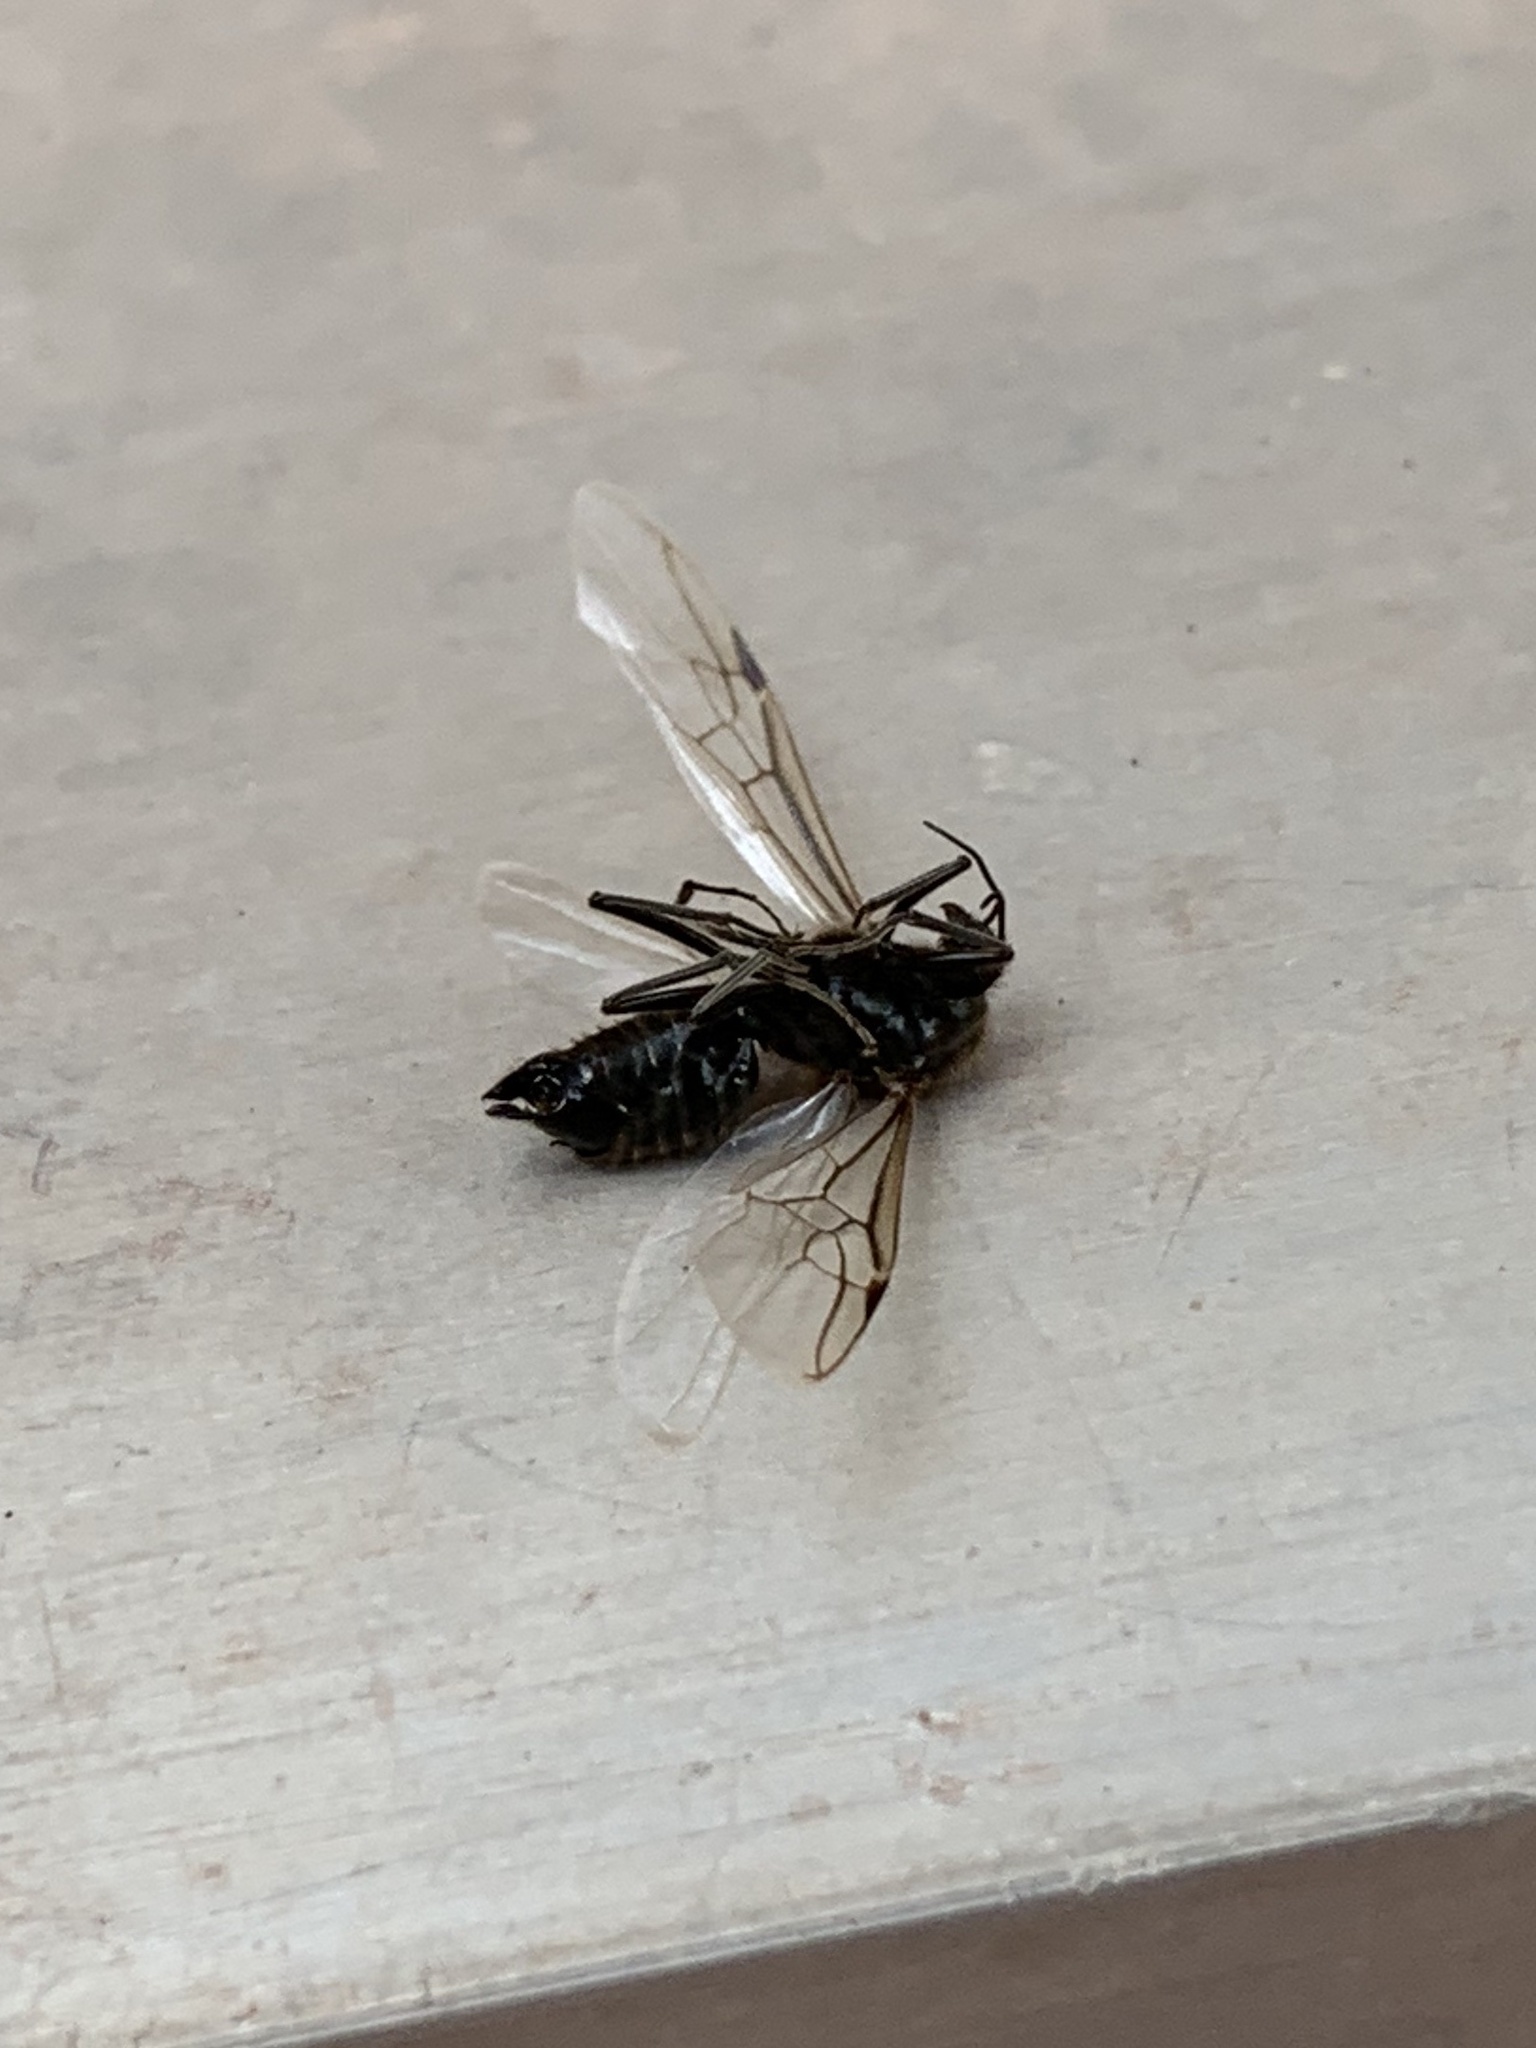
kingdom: Animalia
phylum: Arthropoda
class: Insecta
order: Hymenoptera
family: Formicidae
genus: Liometopum
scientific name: Liometopum apiculatum
